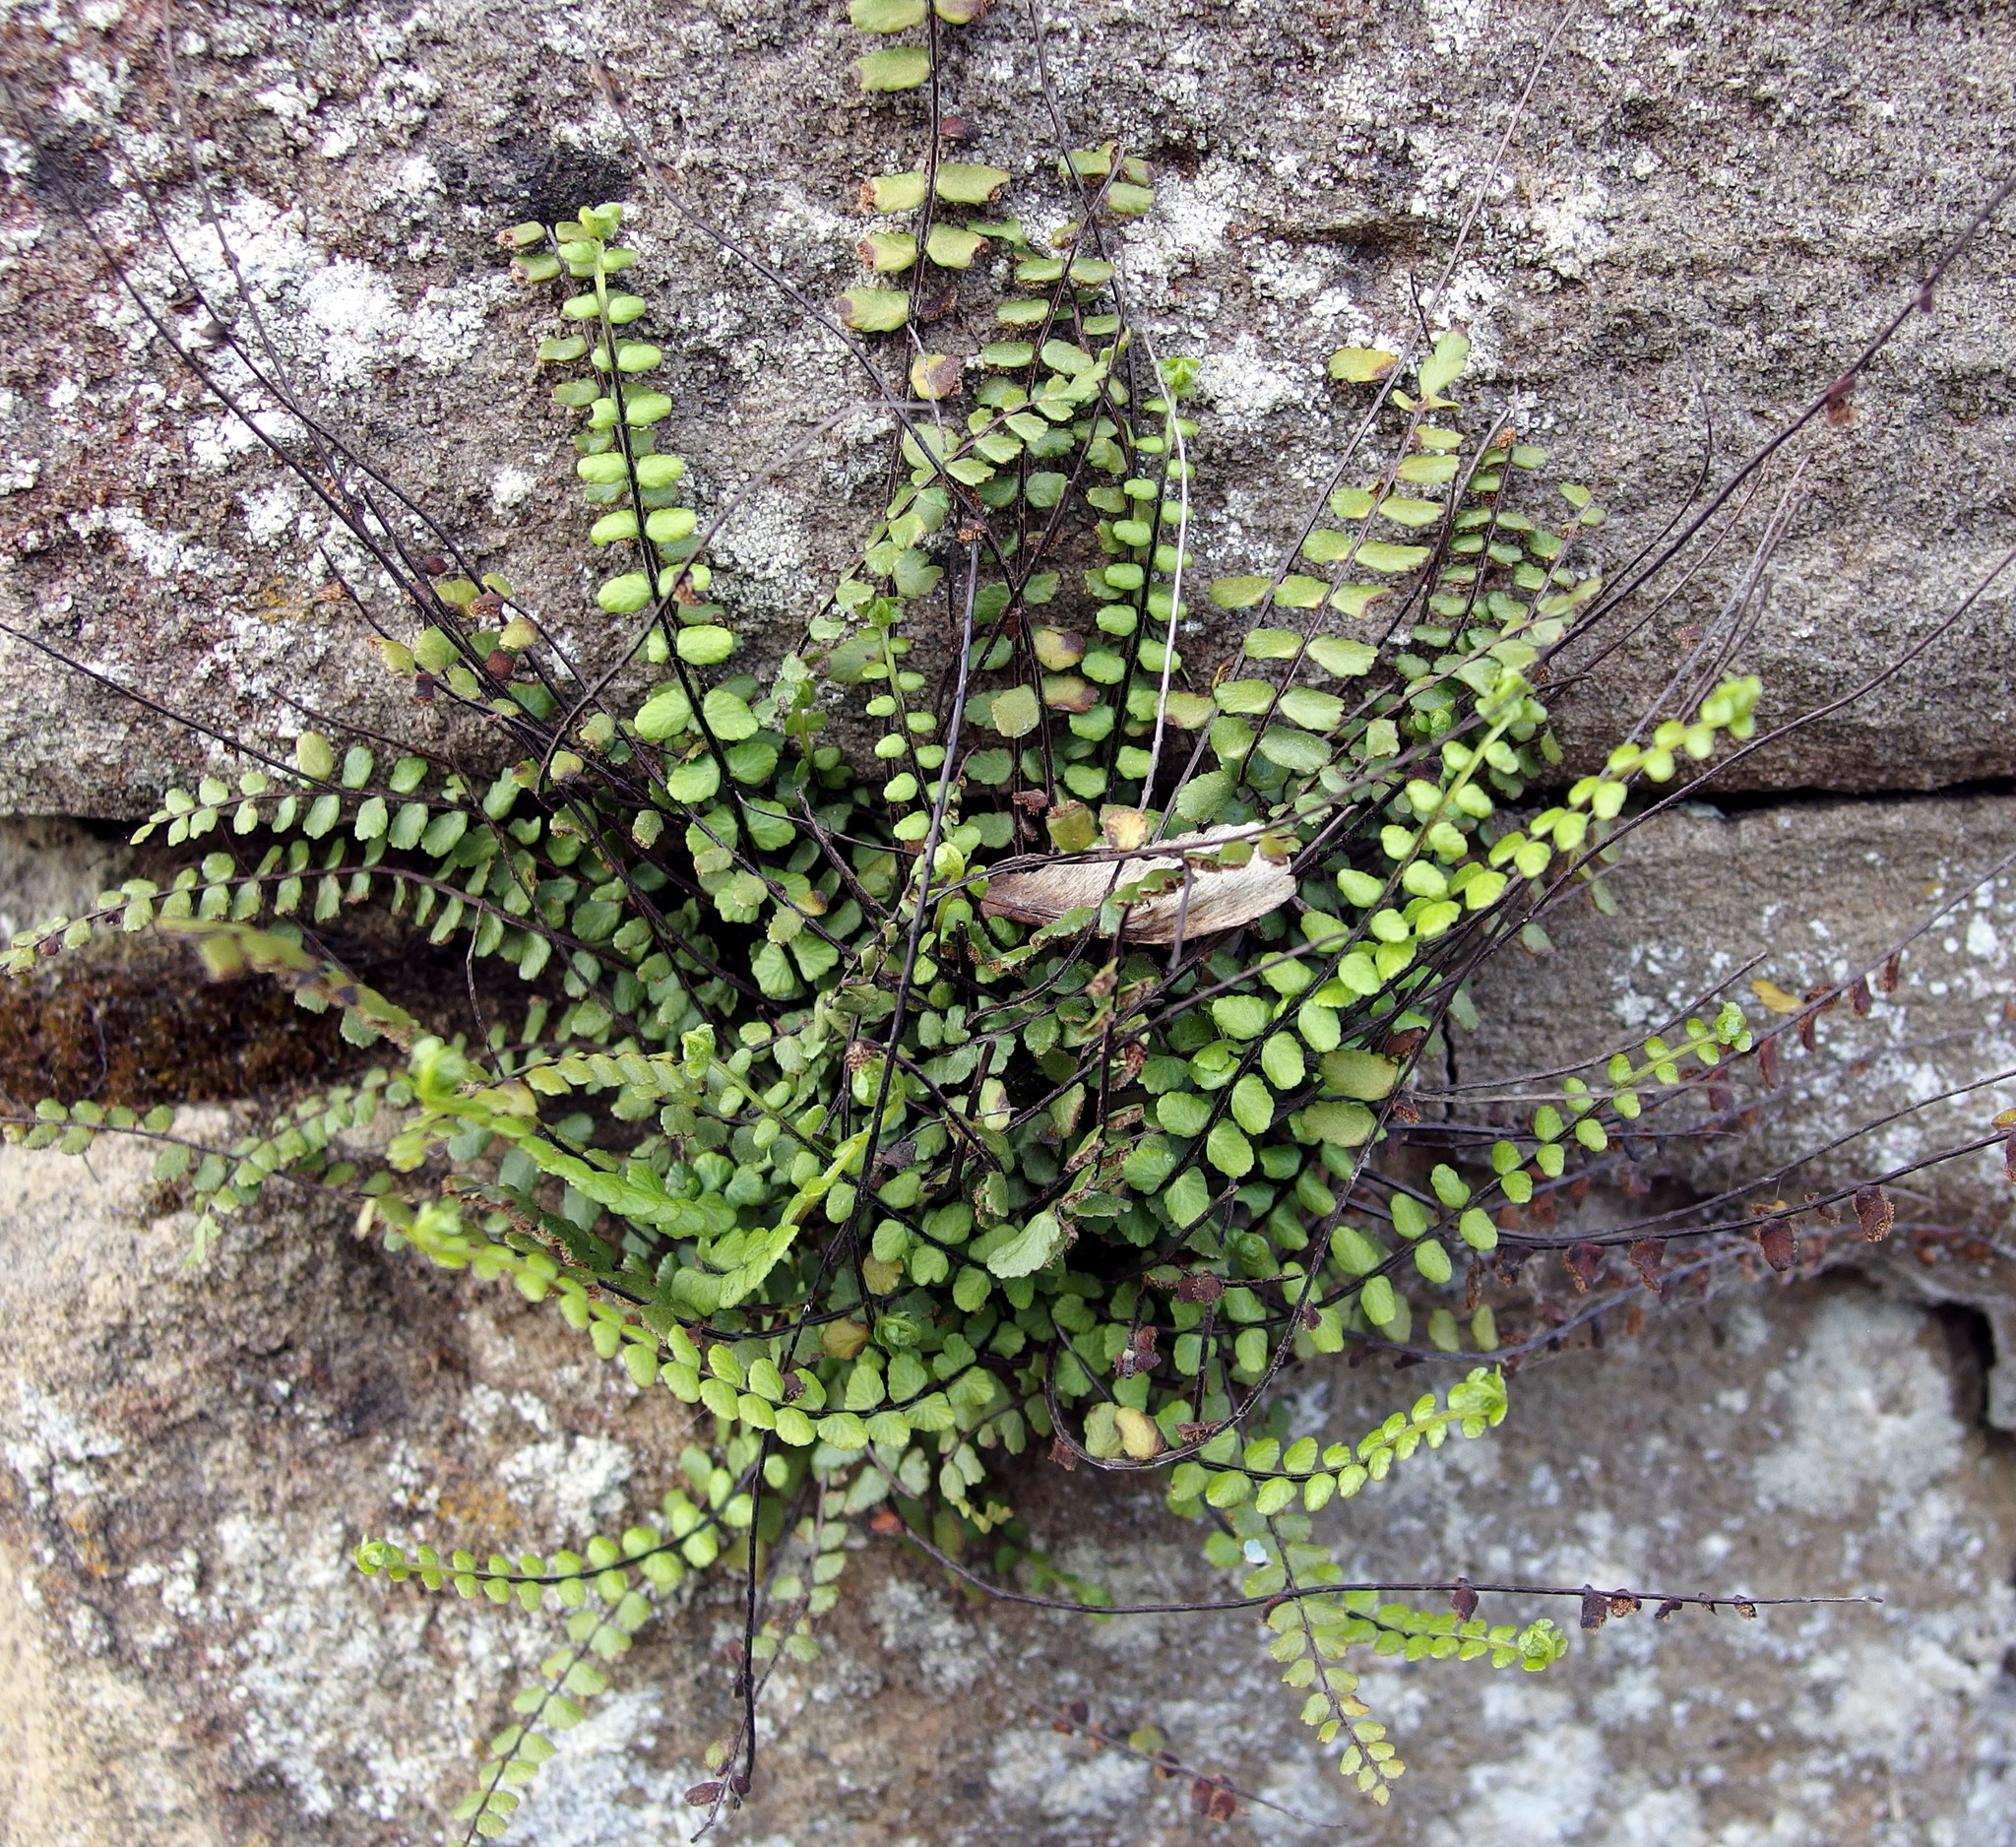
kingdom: Plantae
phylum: Tracheophyta
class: Polypodiopsida
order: Polypodiales
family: Aspleniaceae
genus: Asplenium
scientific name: Asplenium trichomanes
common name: Maidenhair spleenwort
